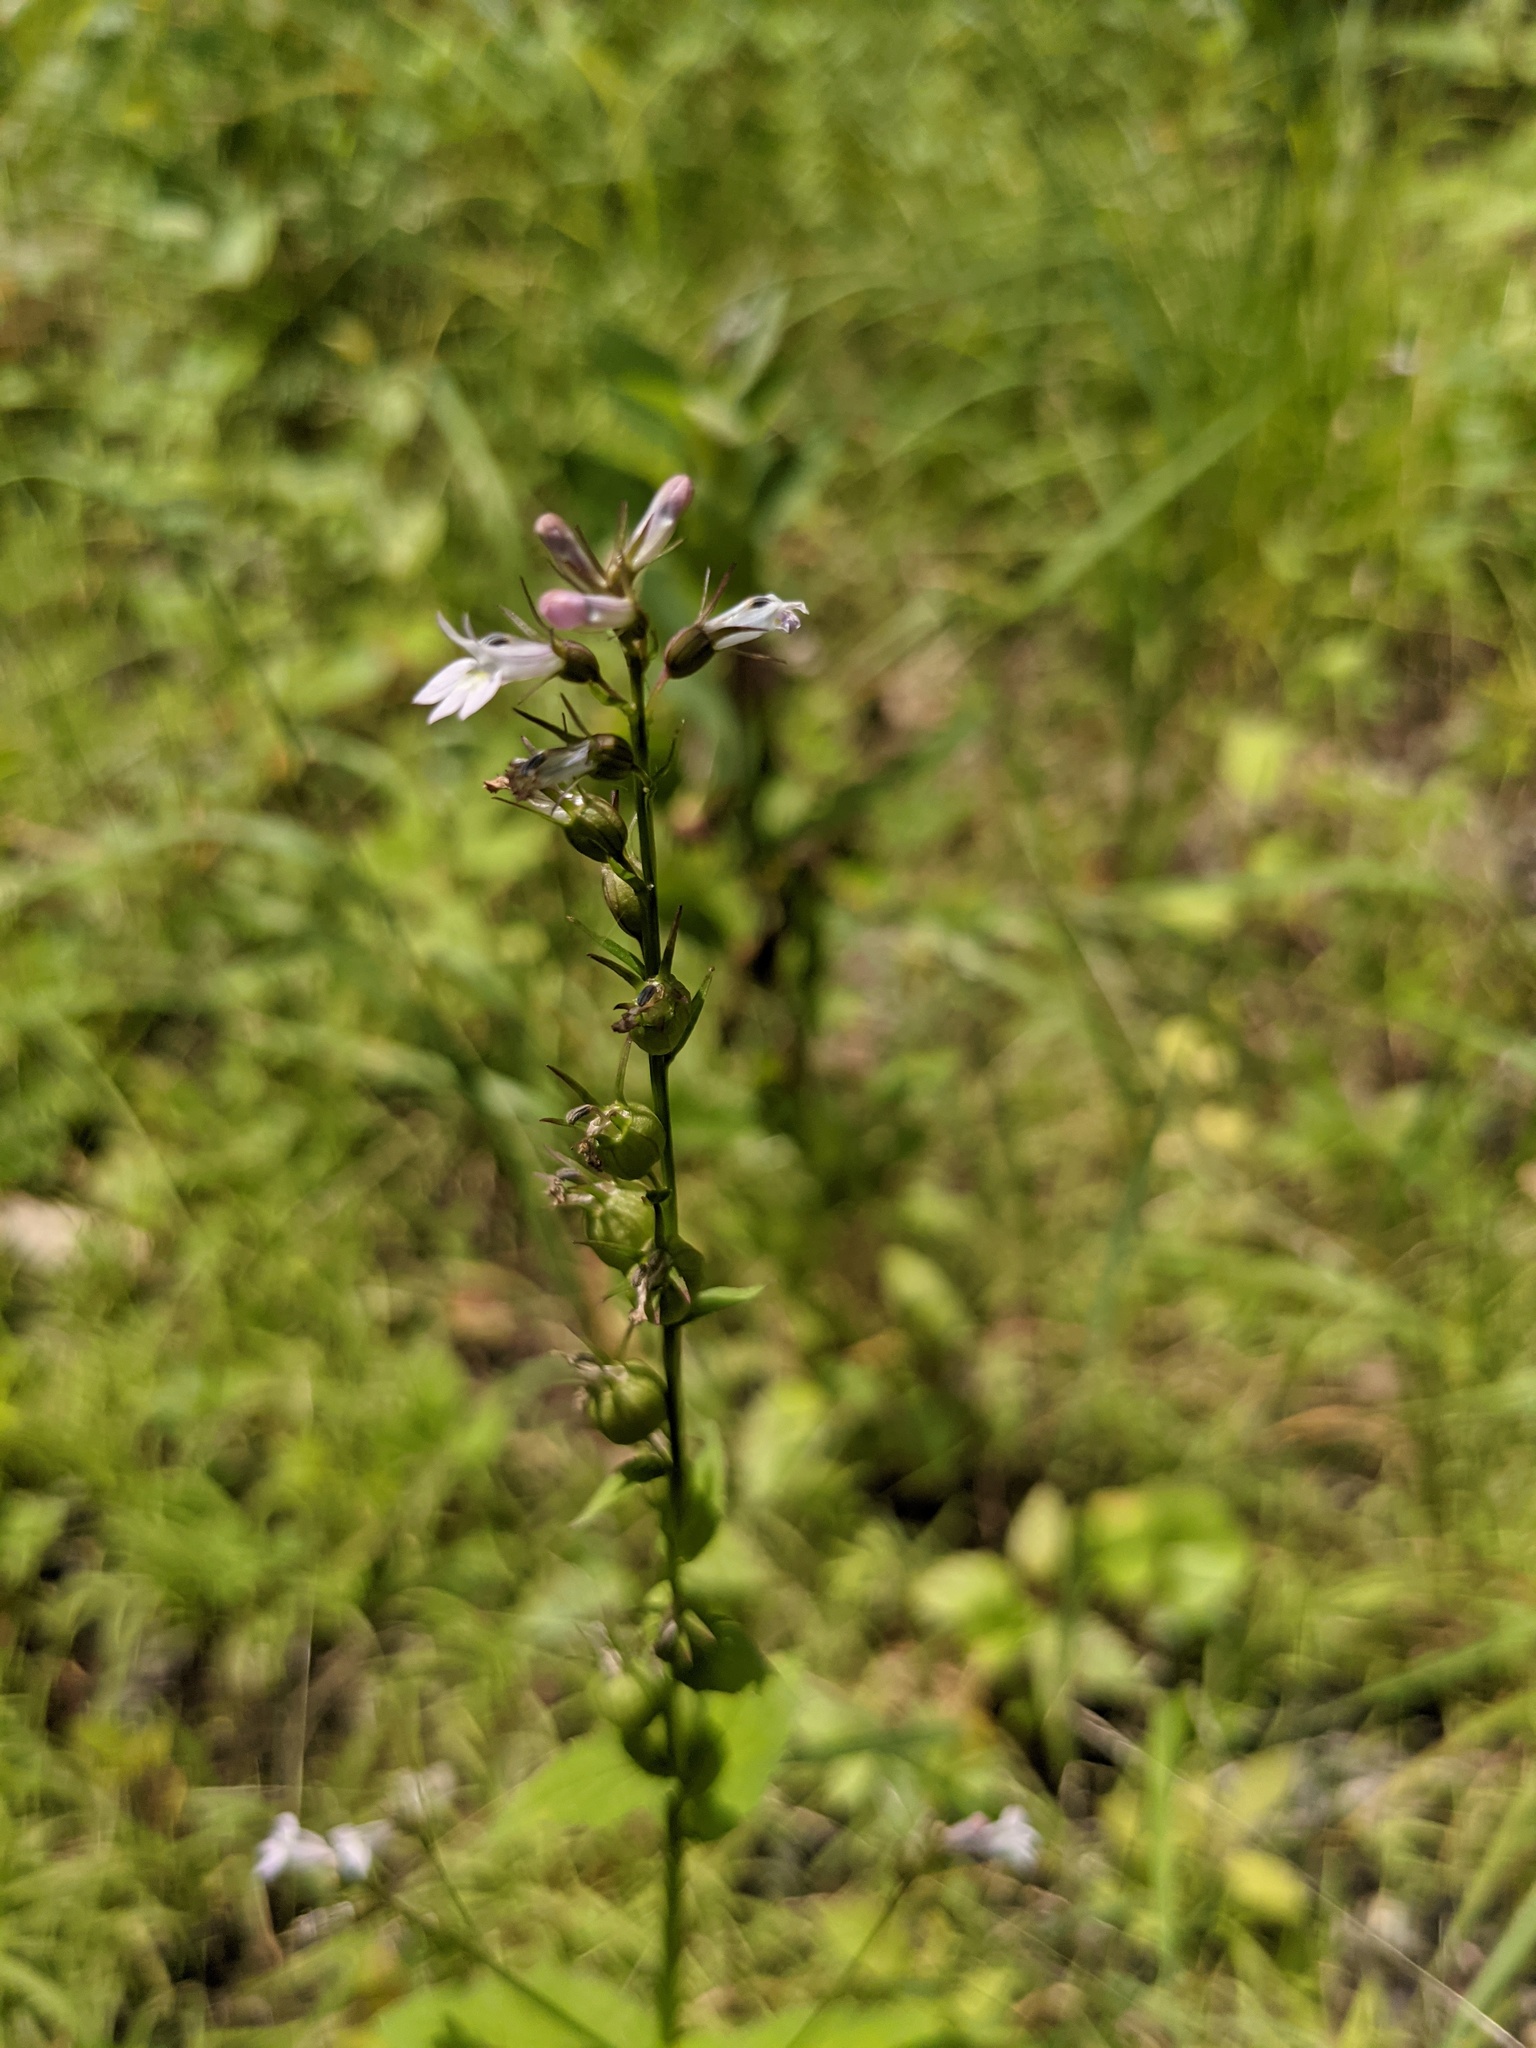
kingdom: Plantae
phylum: Tracheophyta
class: Magnoliopsida
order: Asterales
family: Campanulaceae
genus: Lobelia
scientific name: Lobelia inflata
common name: Indian tobacco
